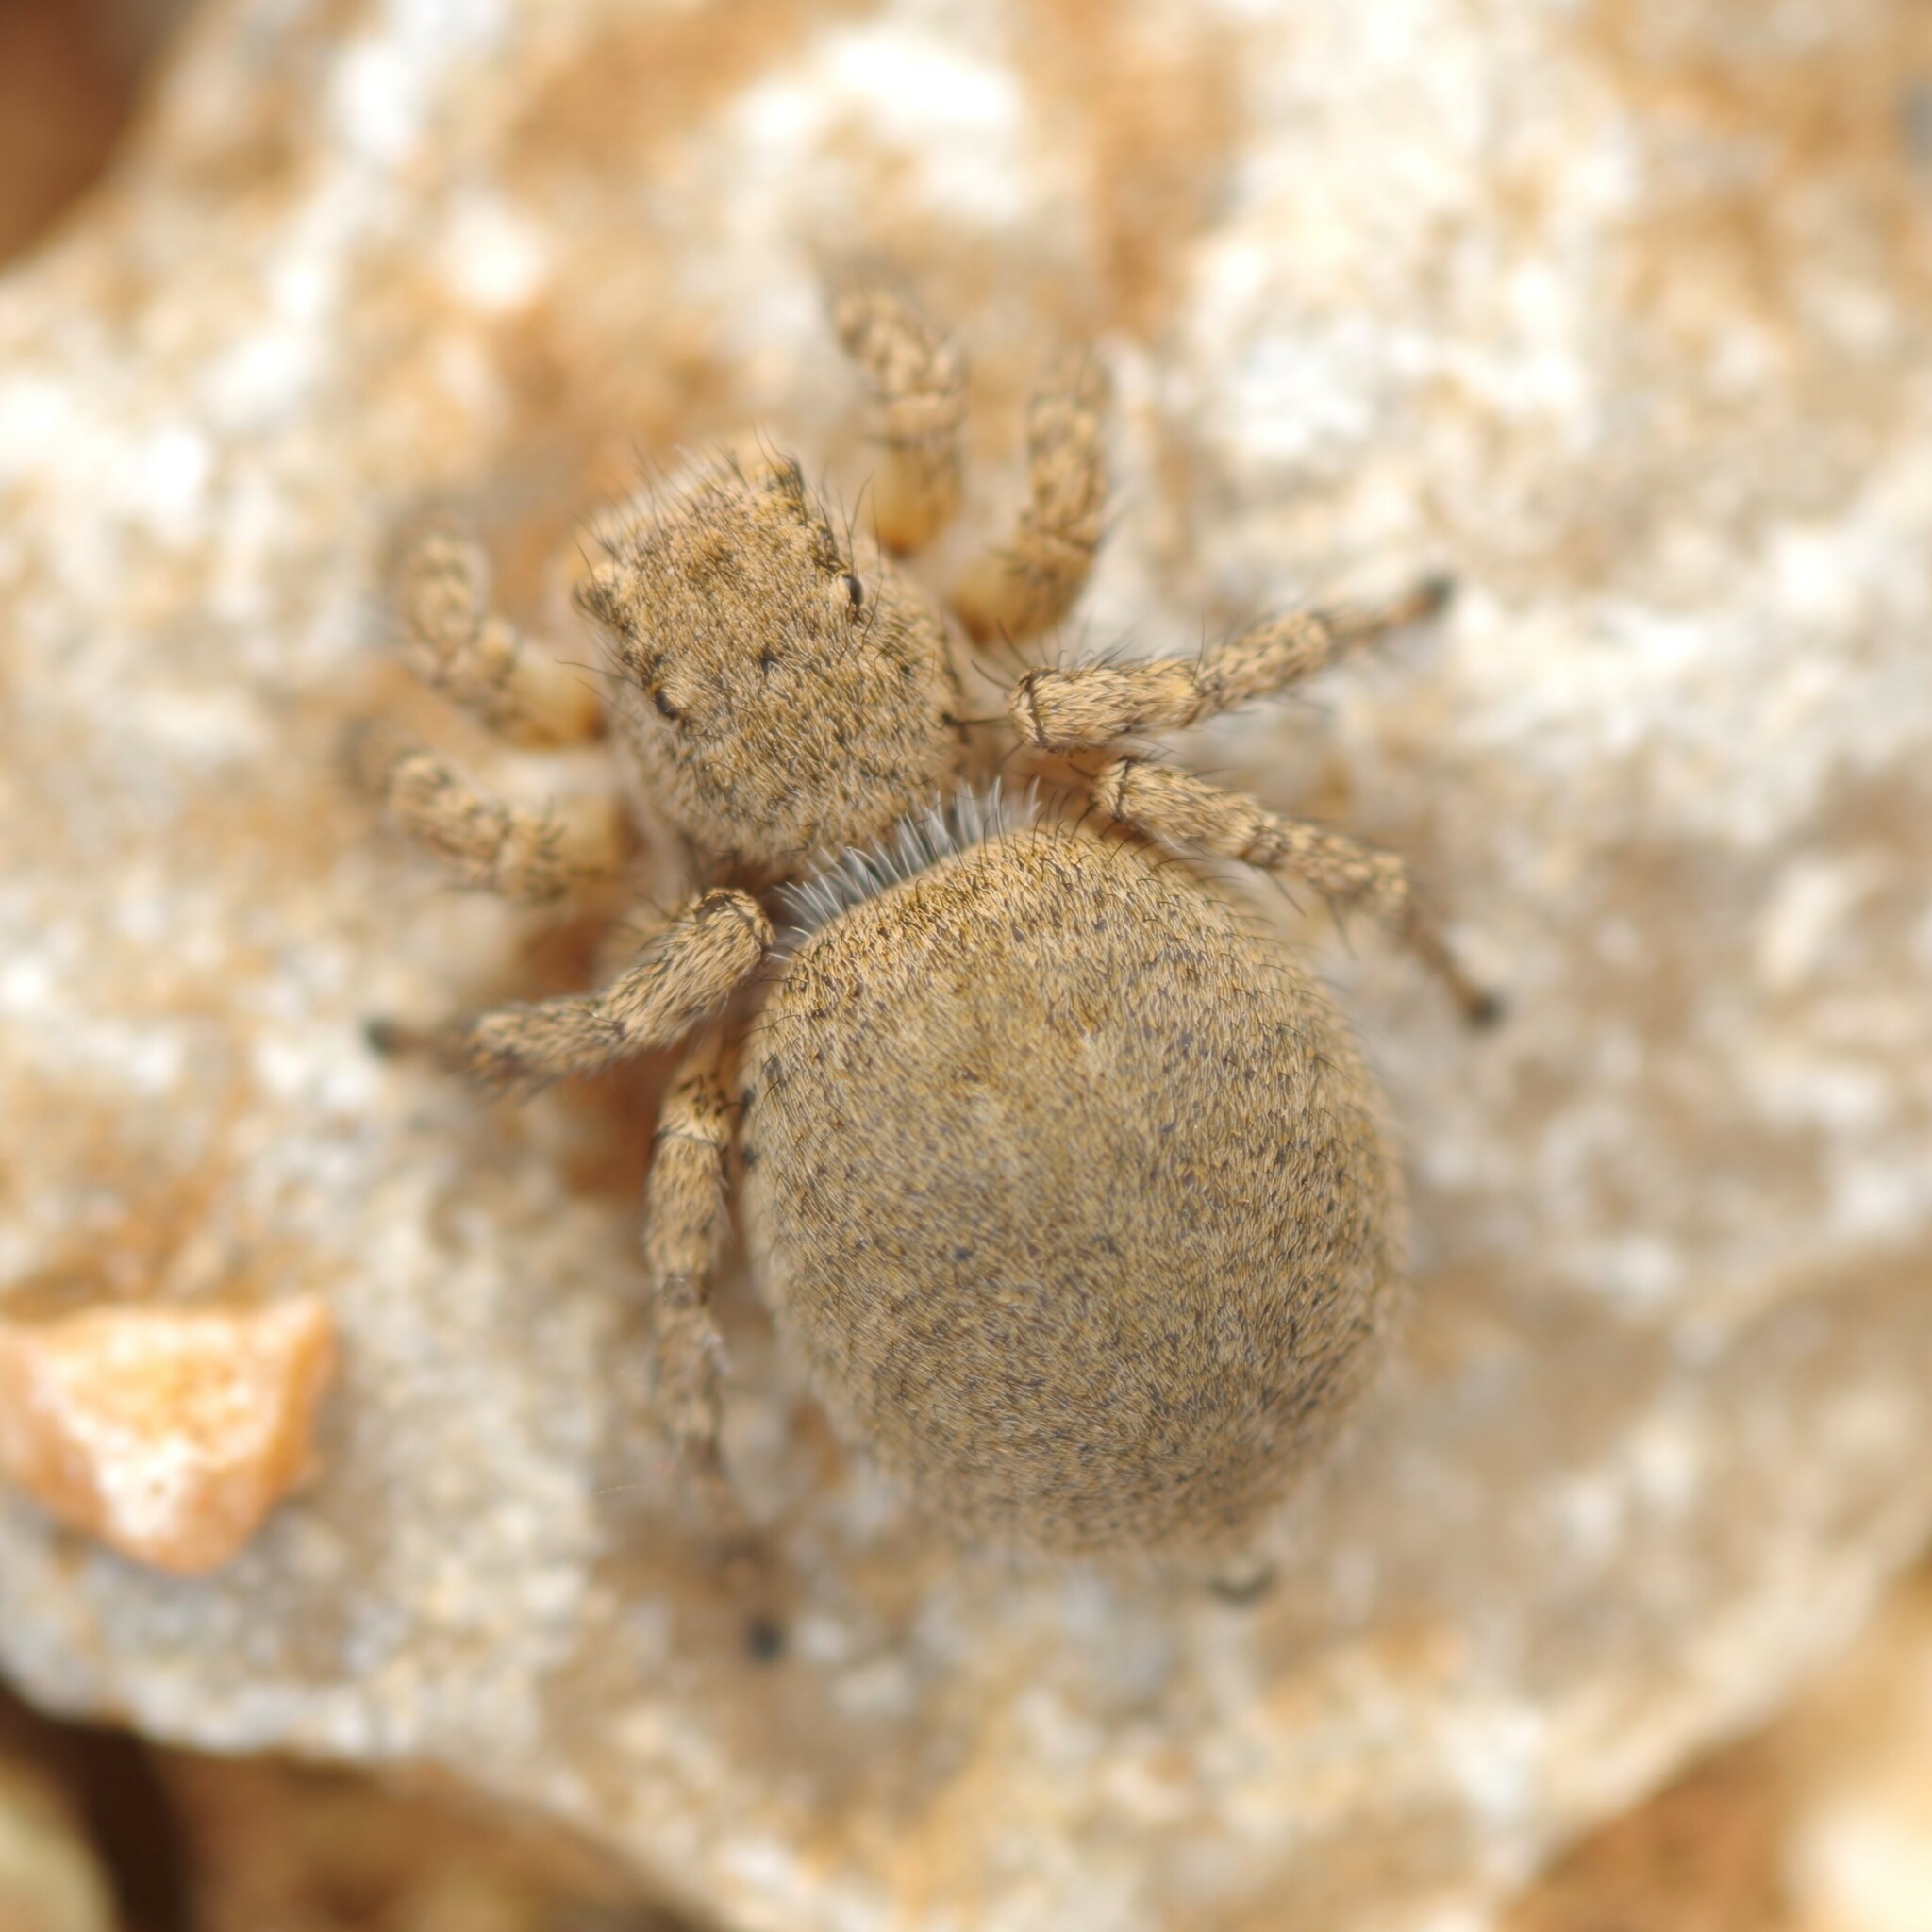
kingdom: Animalia
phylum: Arthropoda
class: Arachnida
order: Araneae
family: Salticidae
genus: Aelurillus
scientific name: Aelurillus v-insignitus
